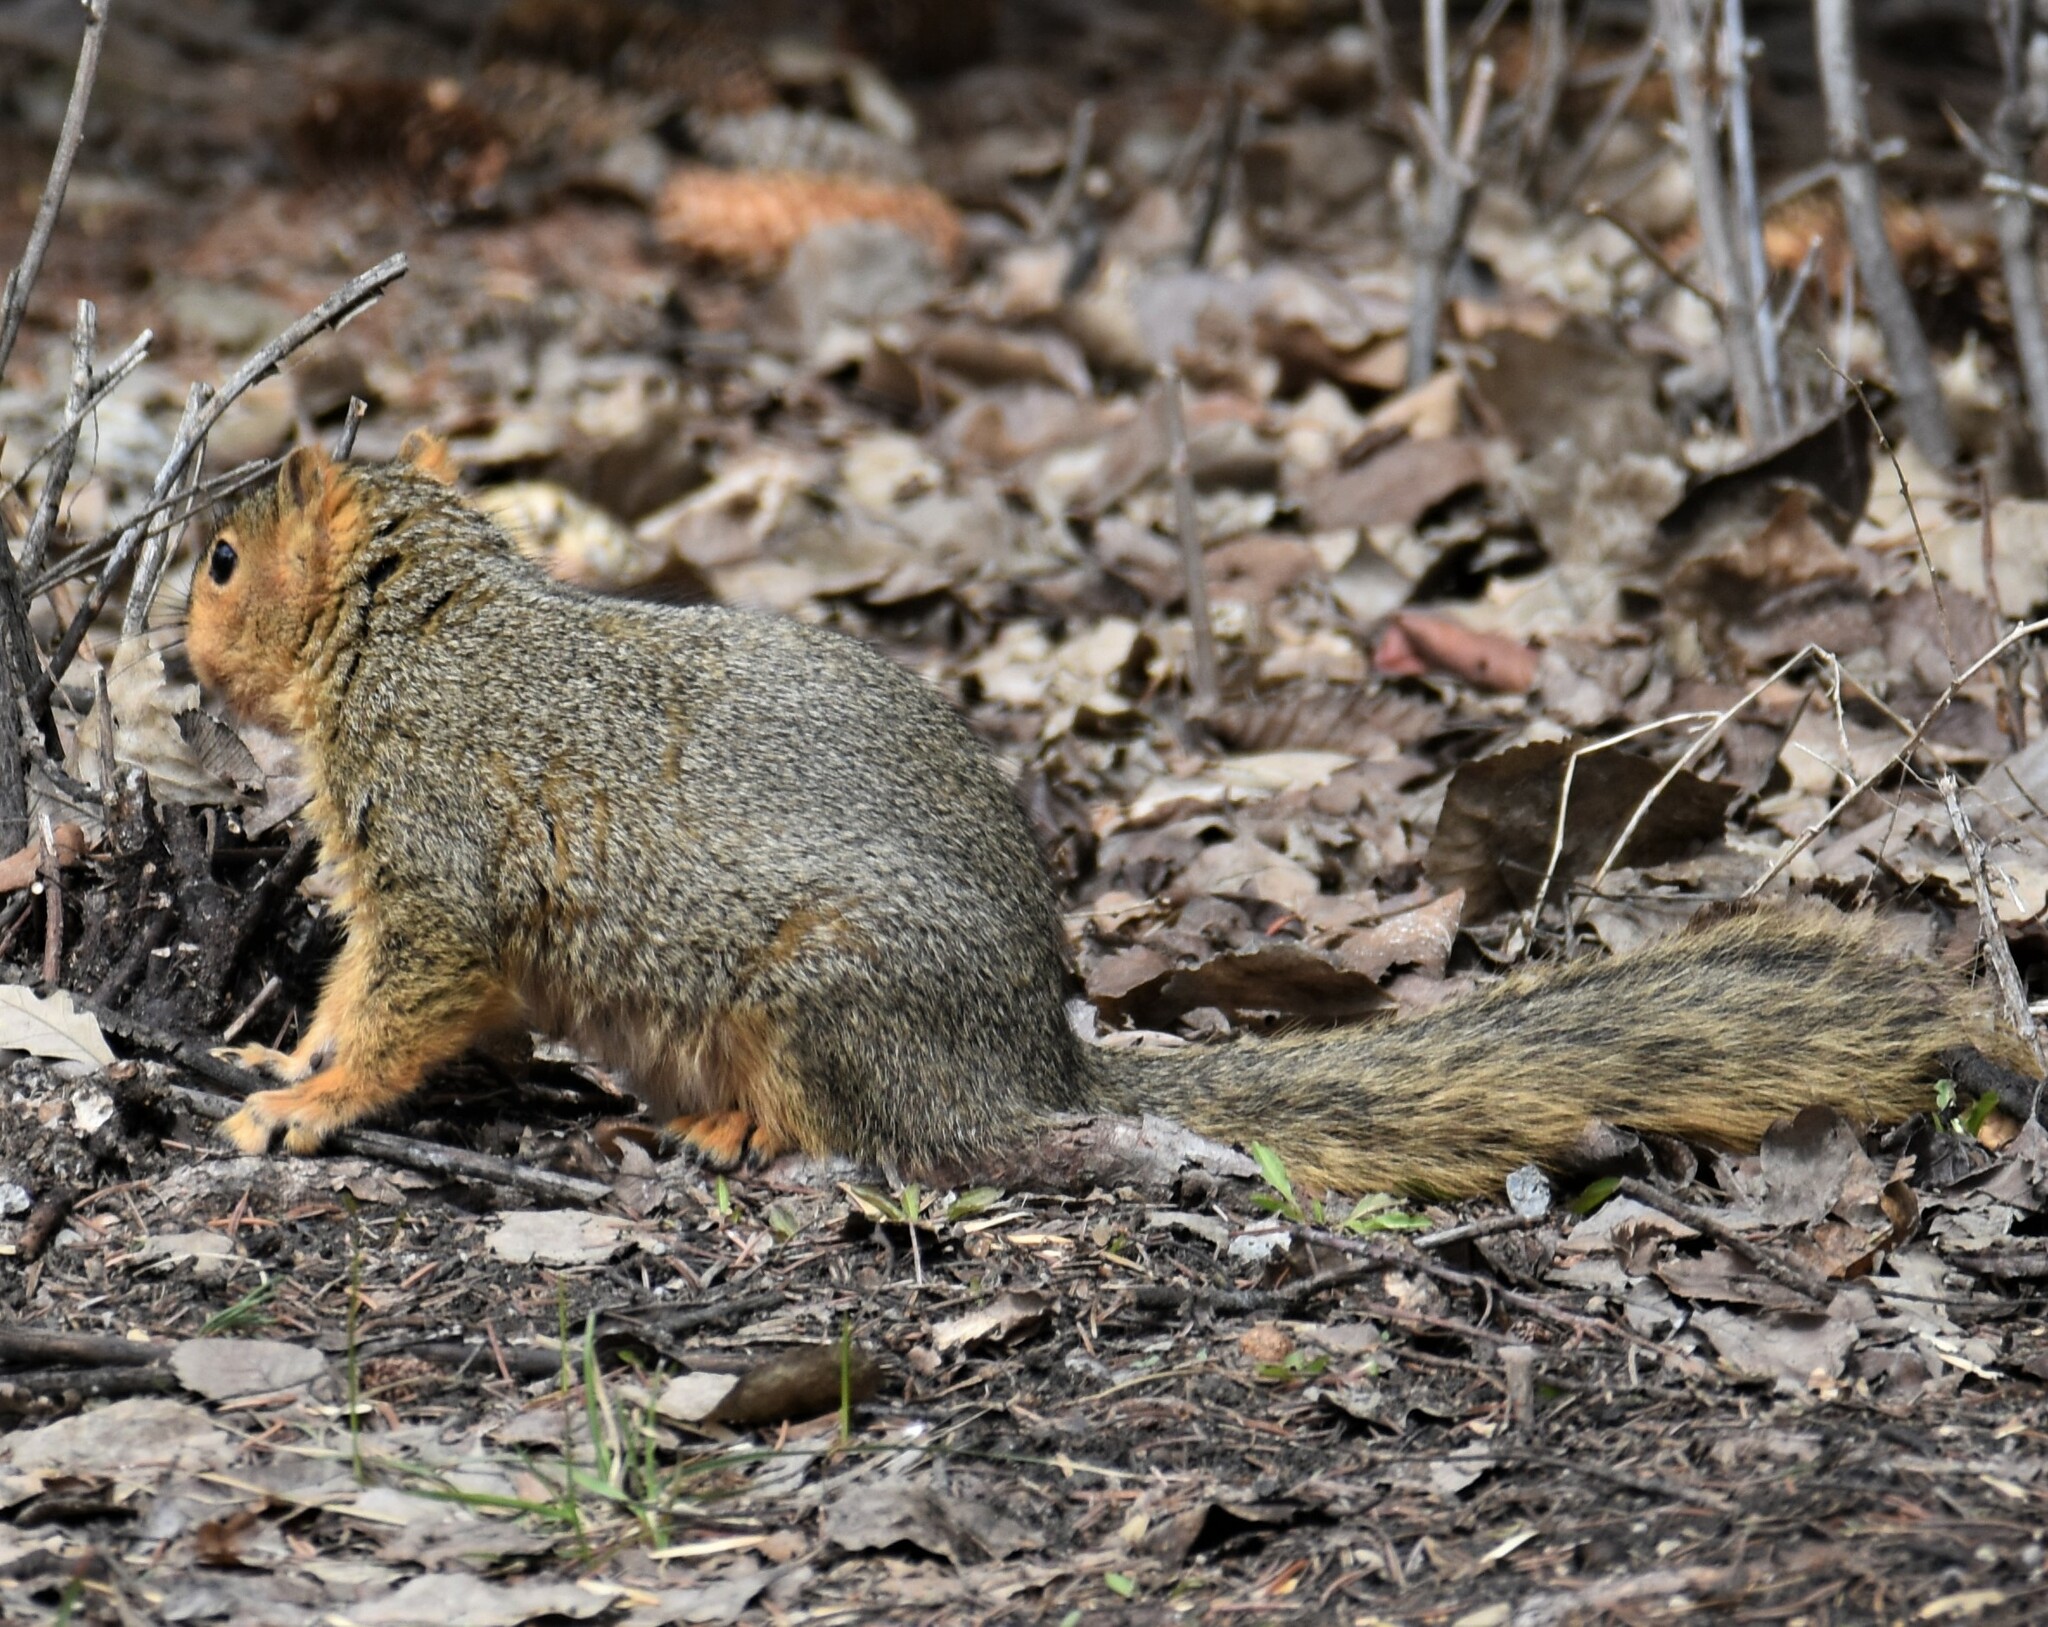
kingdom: Animalia
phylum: Chordata
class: Mammalia
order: Rodentia
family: Sciuridae
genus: Sciurus
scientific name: Sciurus niger
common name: Fox squirrel
